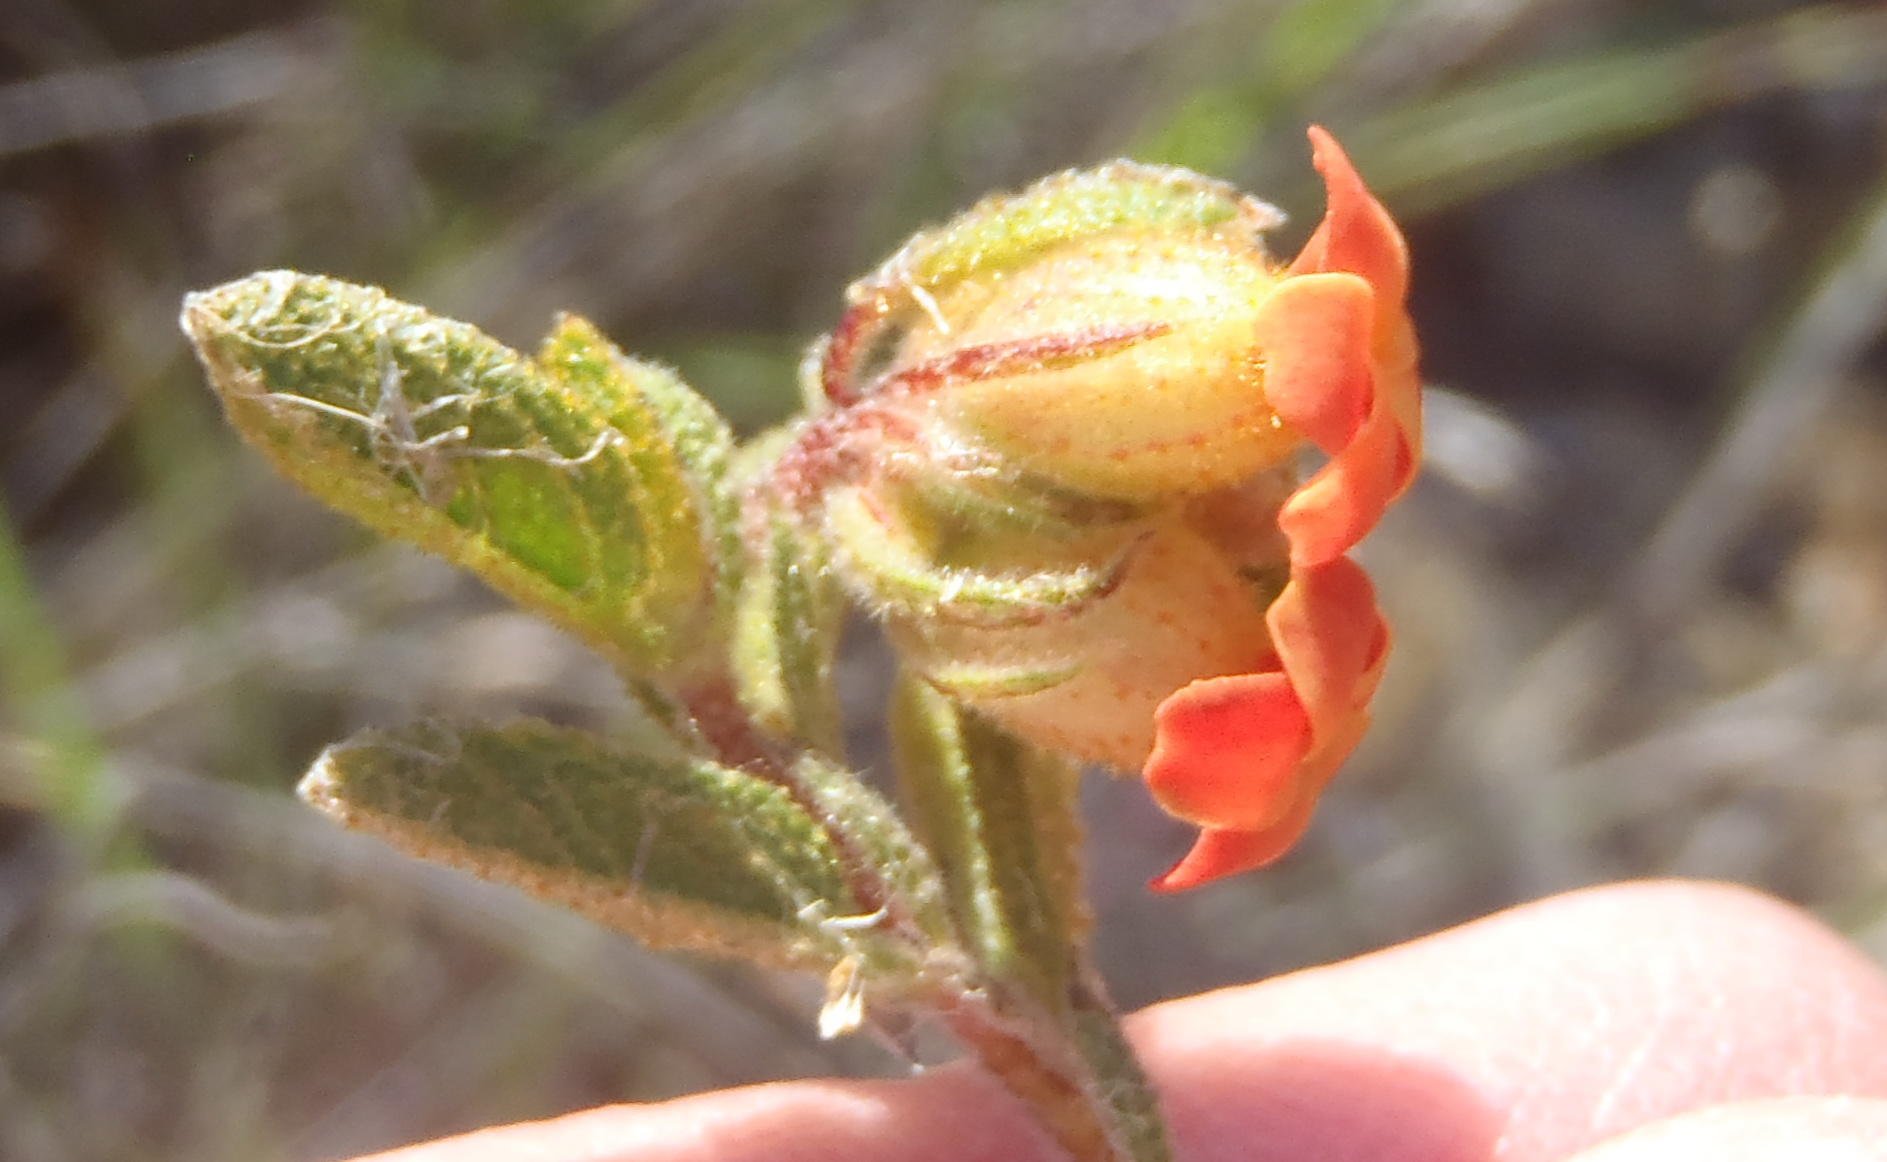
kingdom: Plantae
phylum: Tracheophyta
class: Magnoliopsida
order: Malvales
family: Malvaceae
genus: Hermannia
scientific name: Hermannia salviifolia
